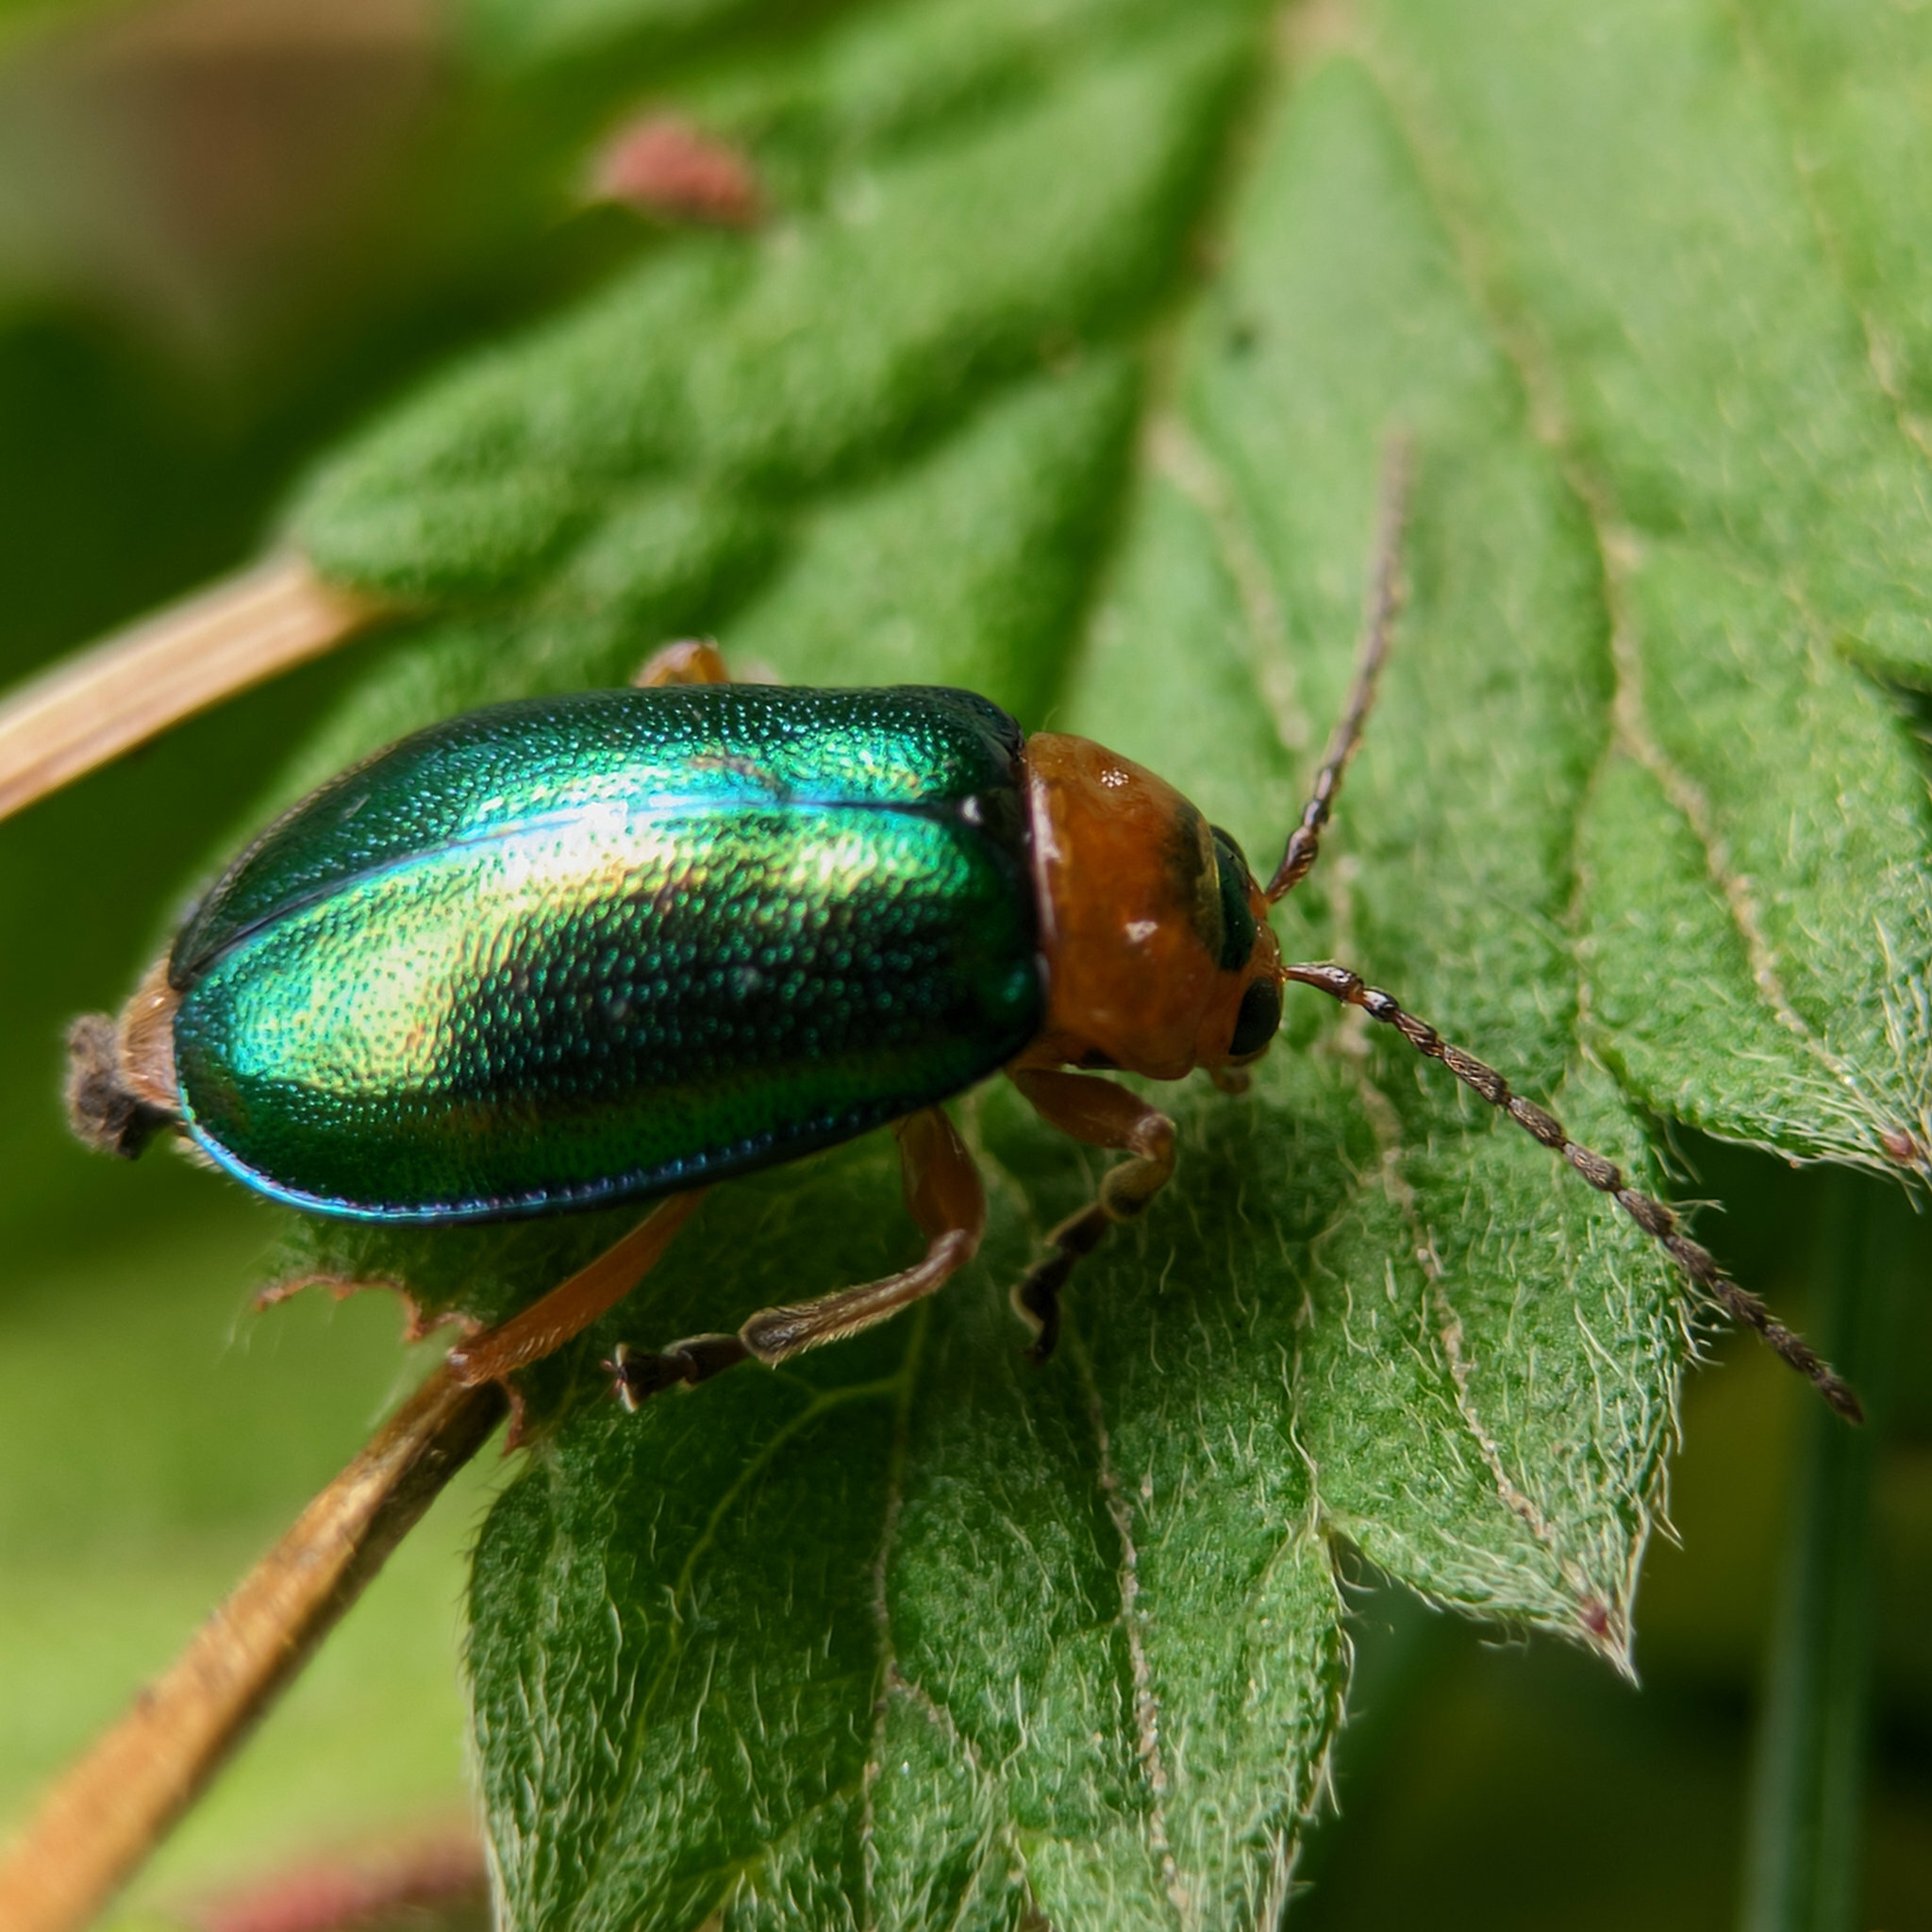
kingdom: Animalia
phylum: Arthropoda
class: Insecta
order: Coleoptera
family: Chrysomelidae
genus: Sermylassa
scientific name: Sermylassa halensis
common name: Leaf beetle
